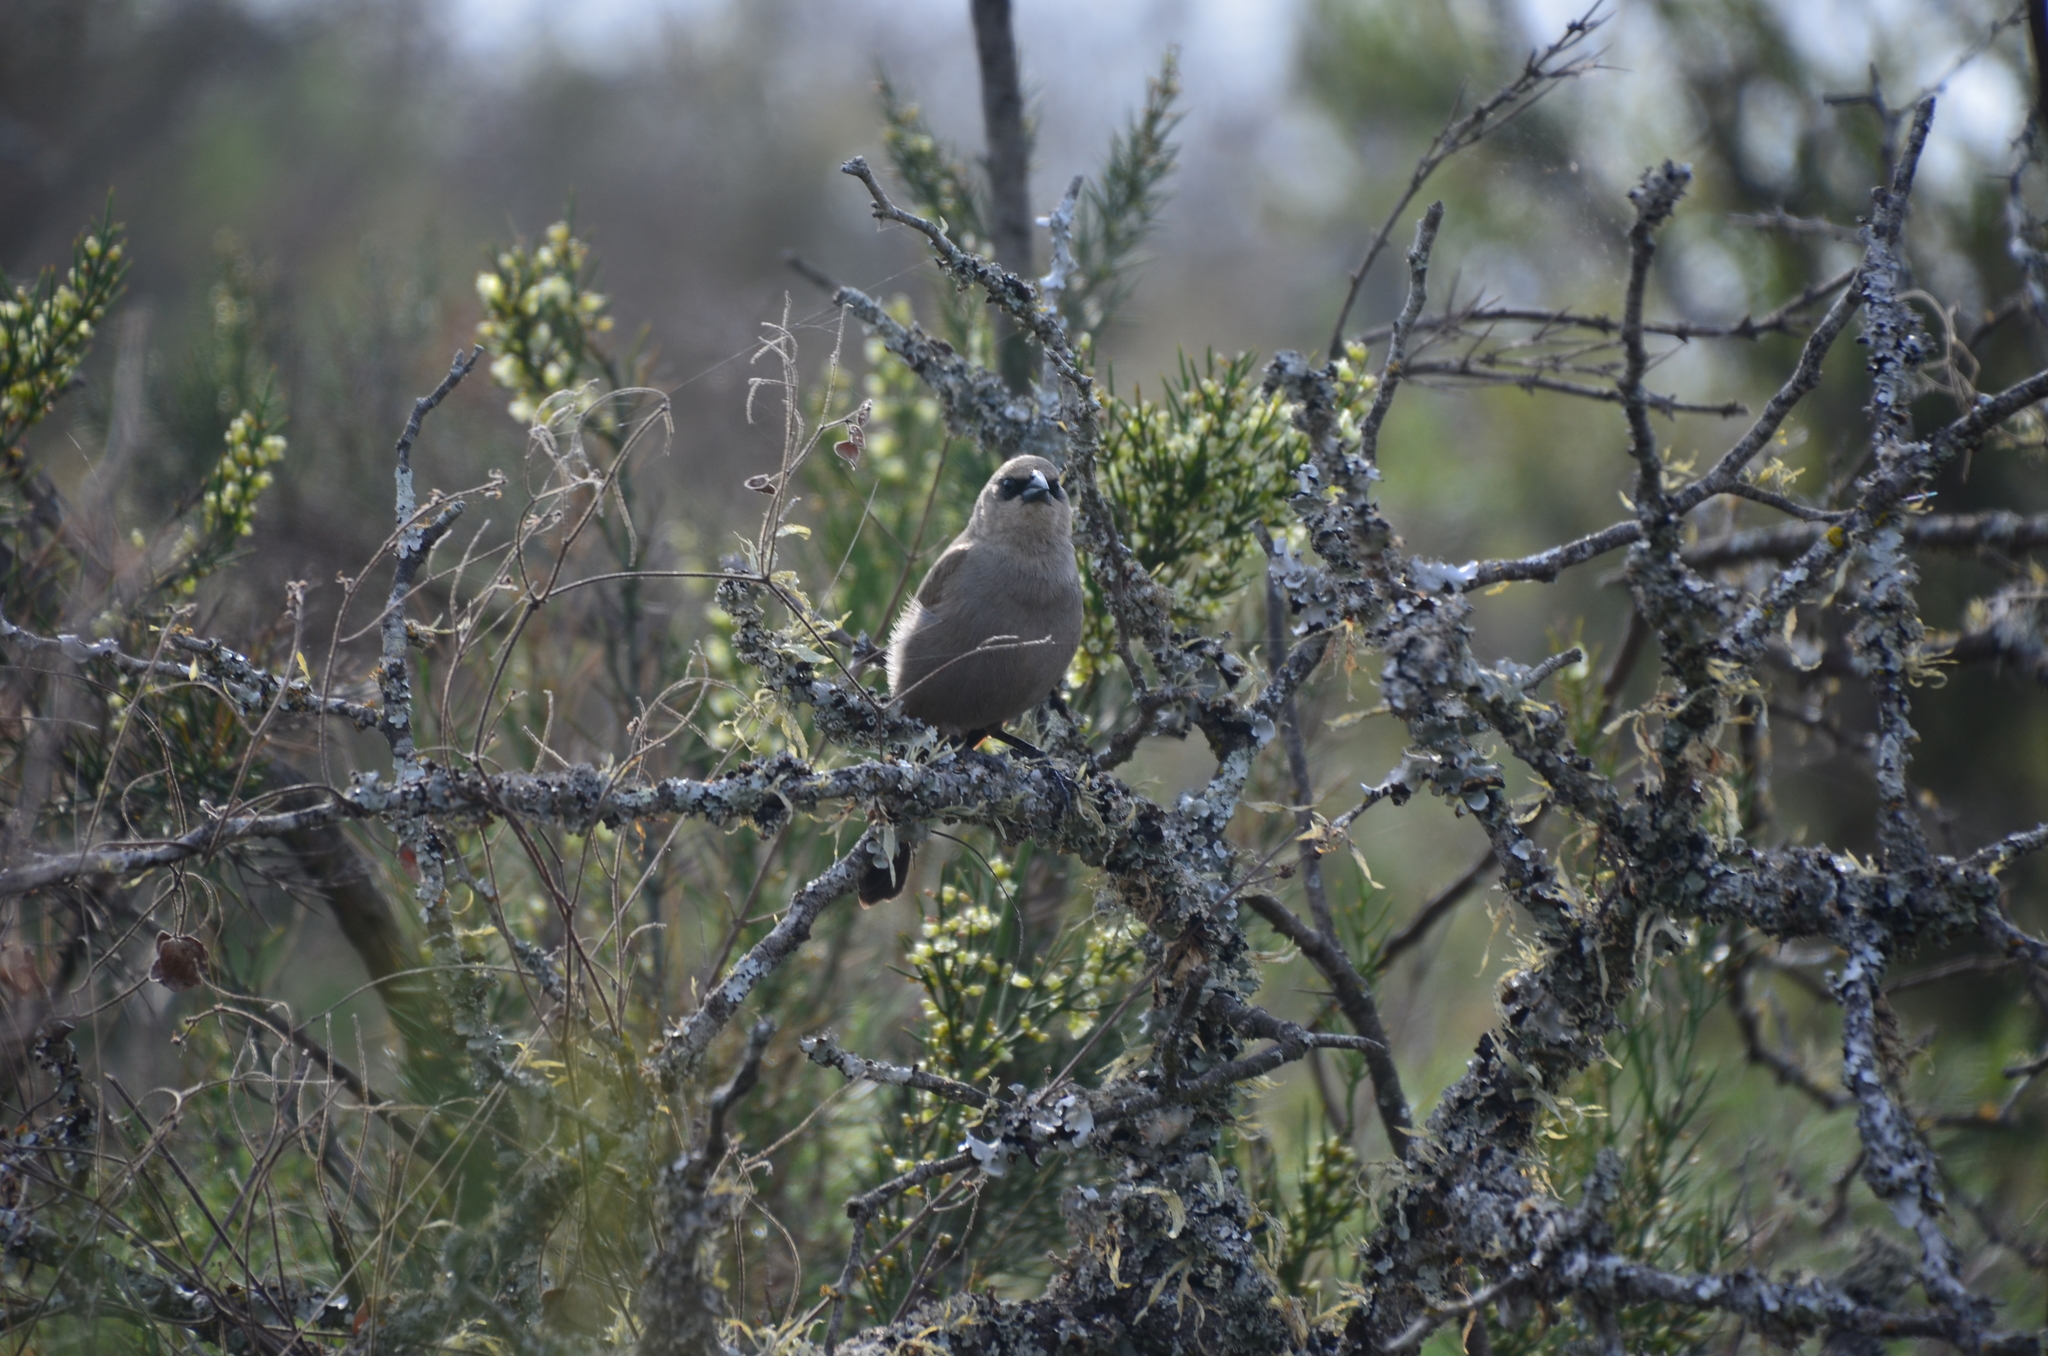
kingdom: Animalia
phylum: Chordata
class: Aves
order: Passeriformes
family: Icteridae
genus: Agelaioides
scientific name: Agelaioides badius
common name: Baywing
